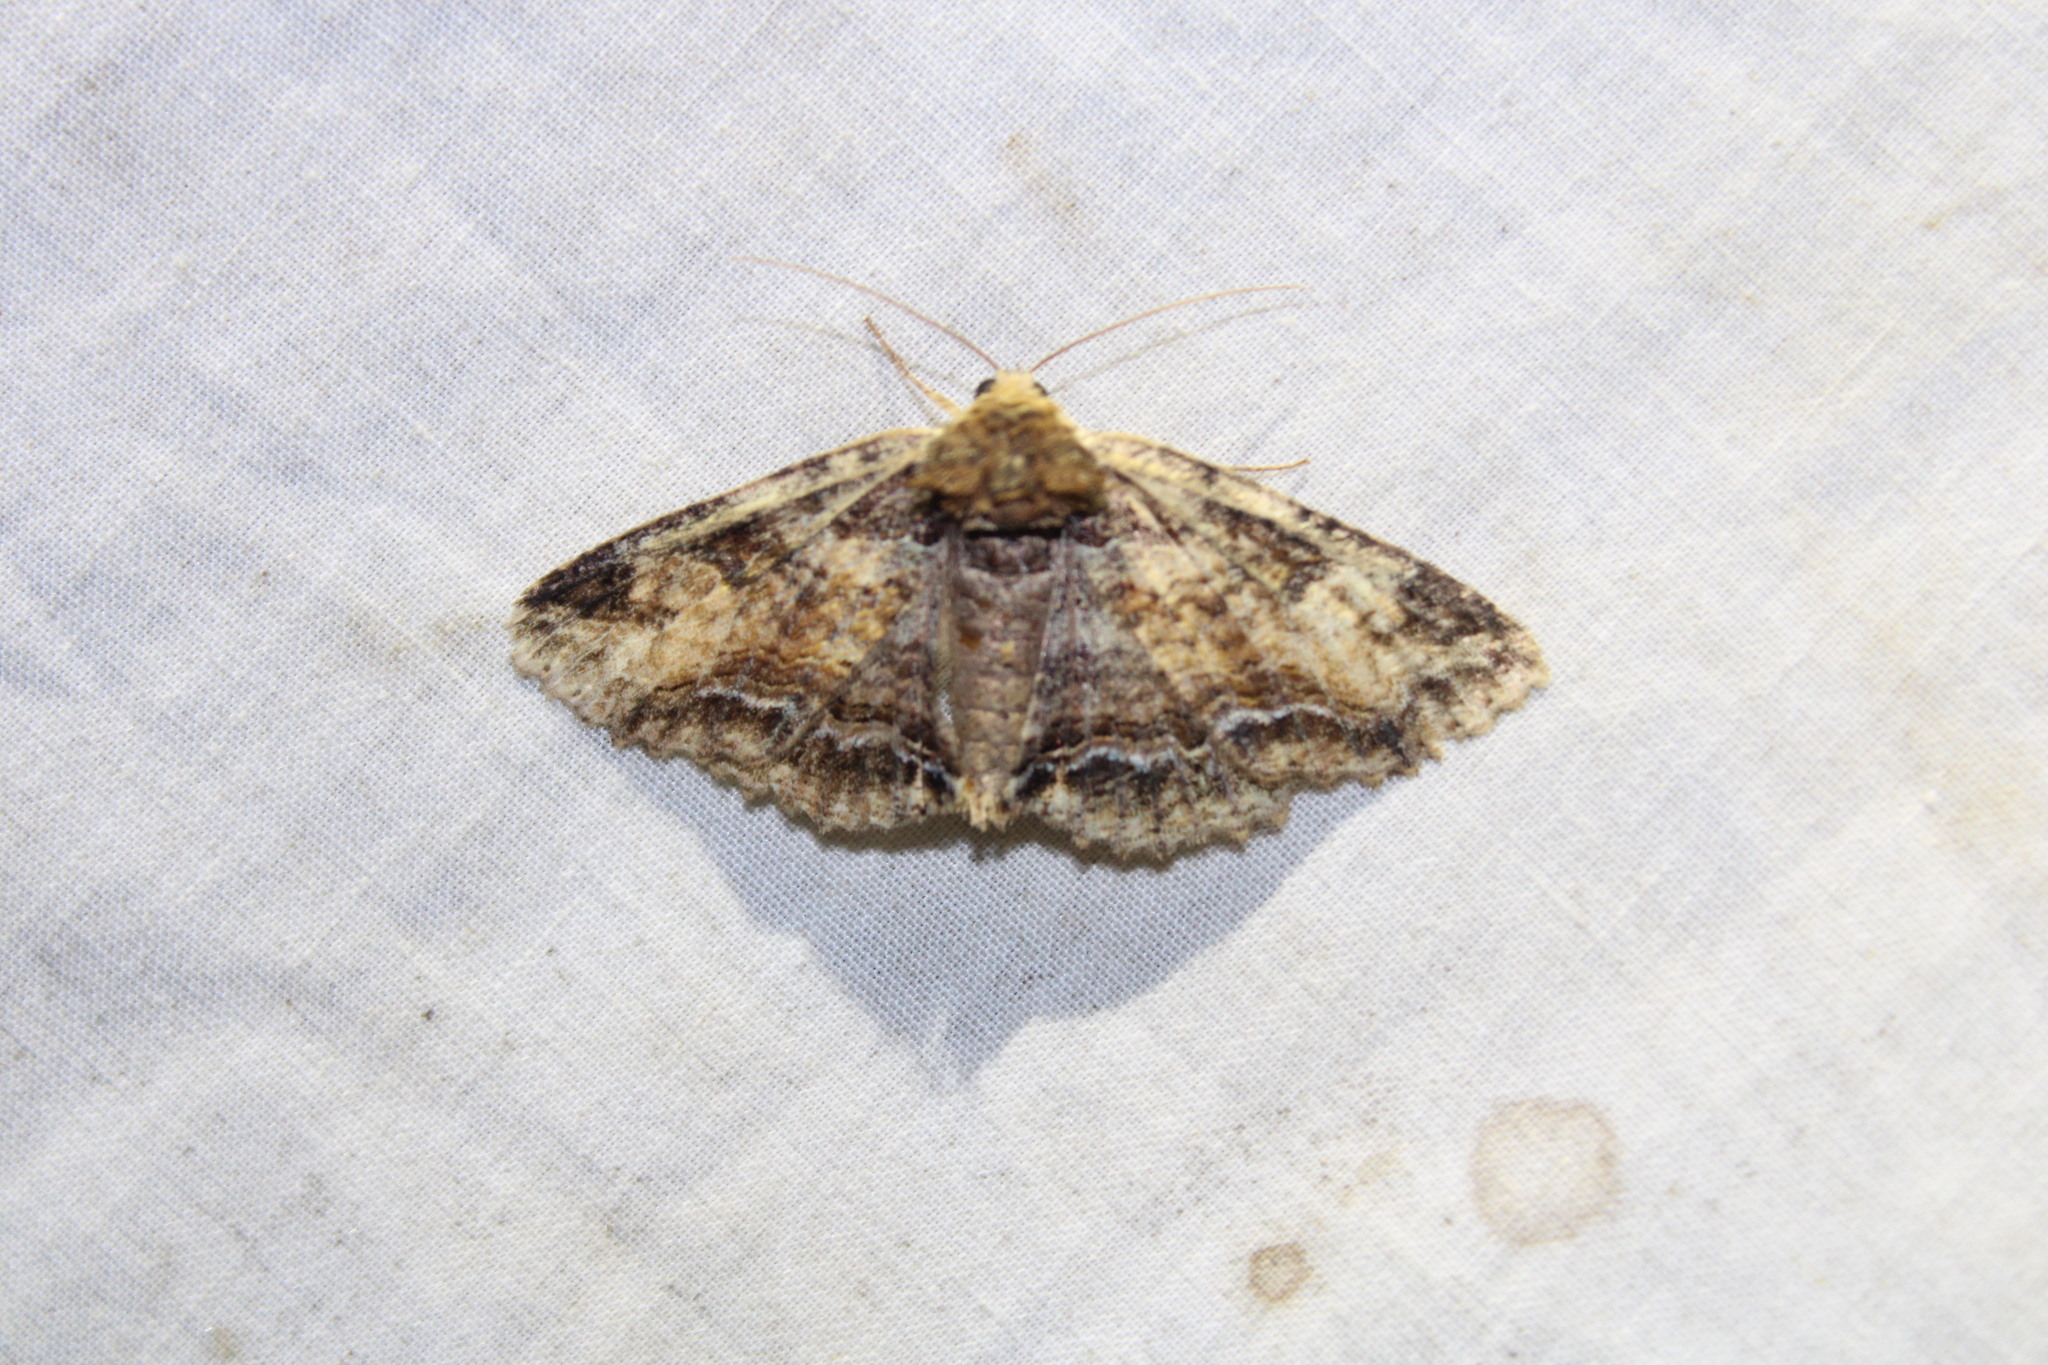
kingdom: Animalia
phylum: Arthropoda
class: Insecta
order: Lepidoptera
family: Erebidae
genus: Zale
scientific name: Zale minerea
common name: Colorful zale moth
